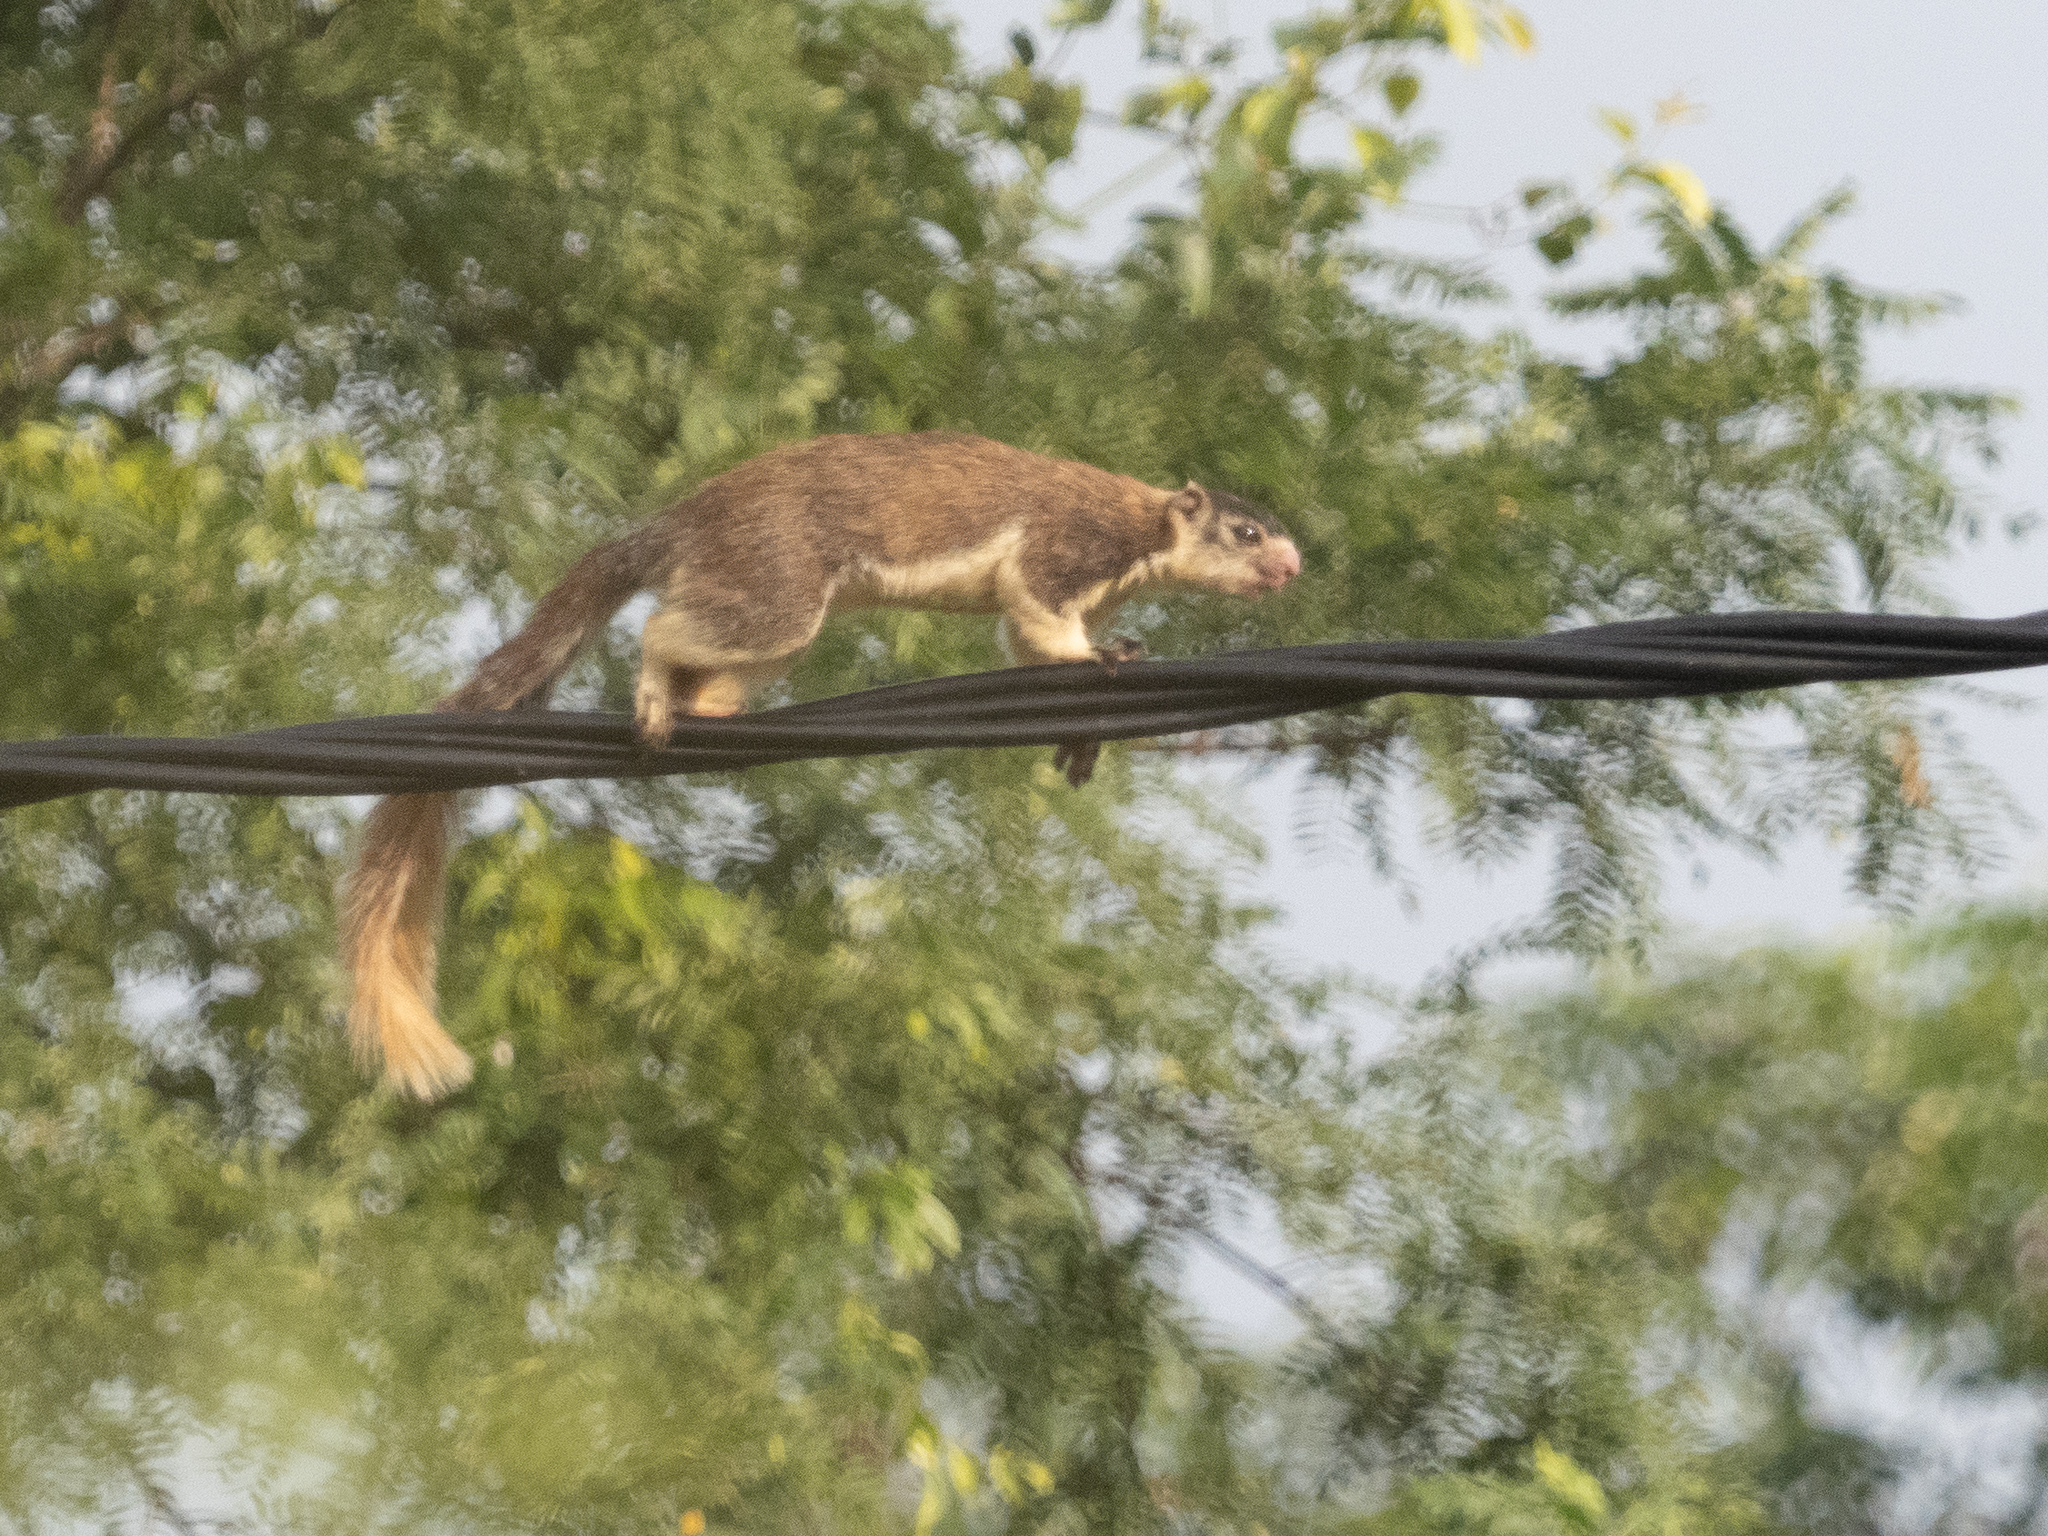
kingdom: Animalia
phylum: Chordata
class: Mammalia
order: Rodentia
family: Sciuridae
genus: Ratufa
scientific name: Ratufa macroura
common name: Sri lankan giant squirrel
